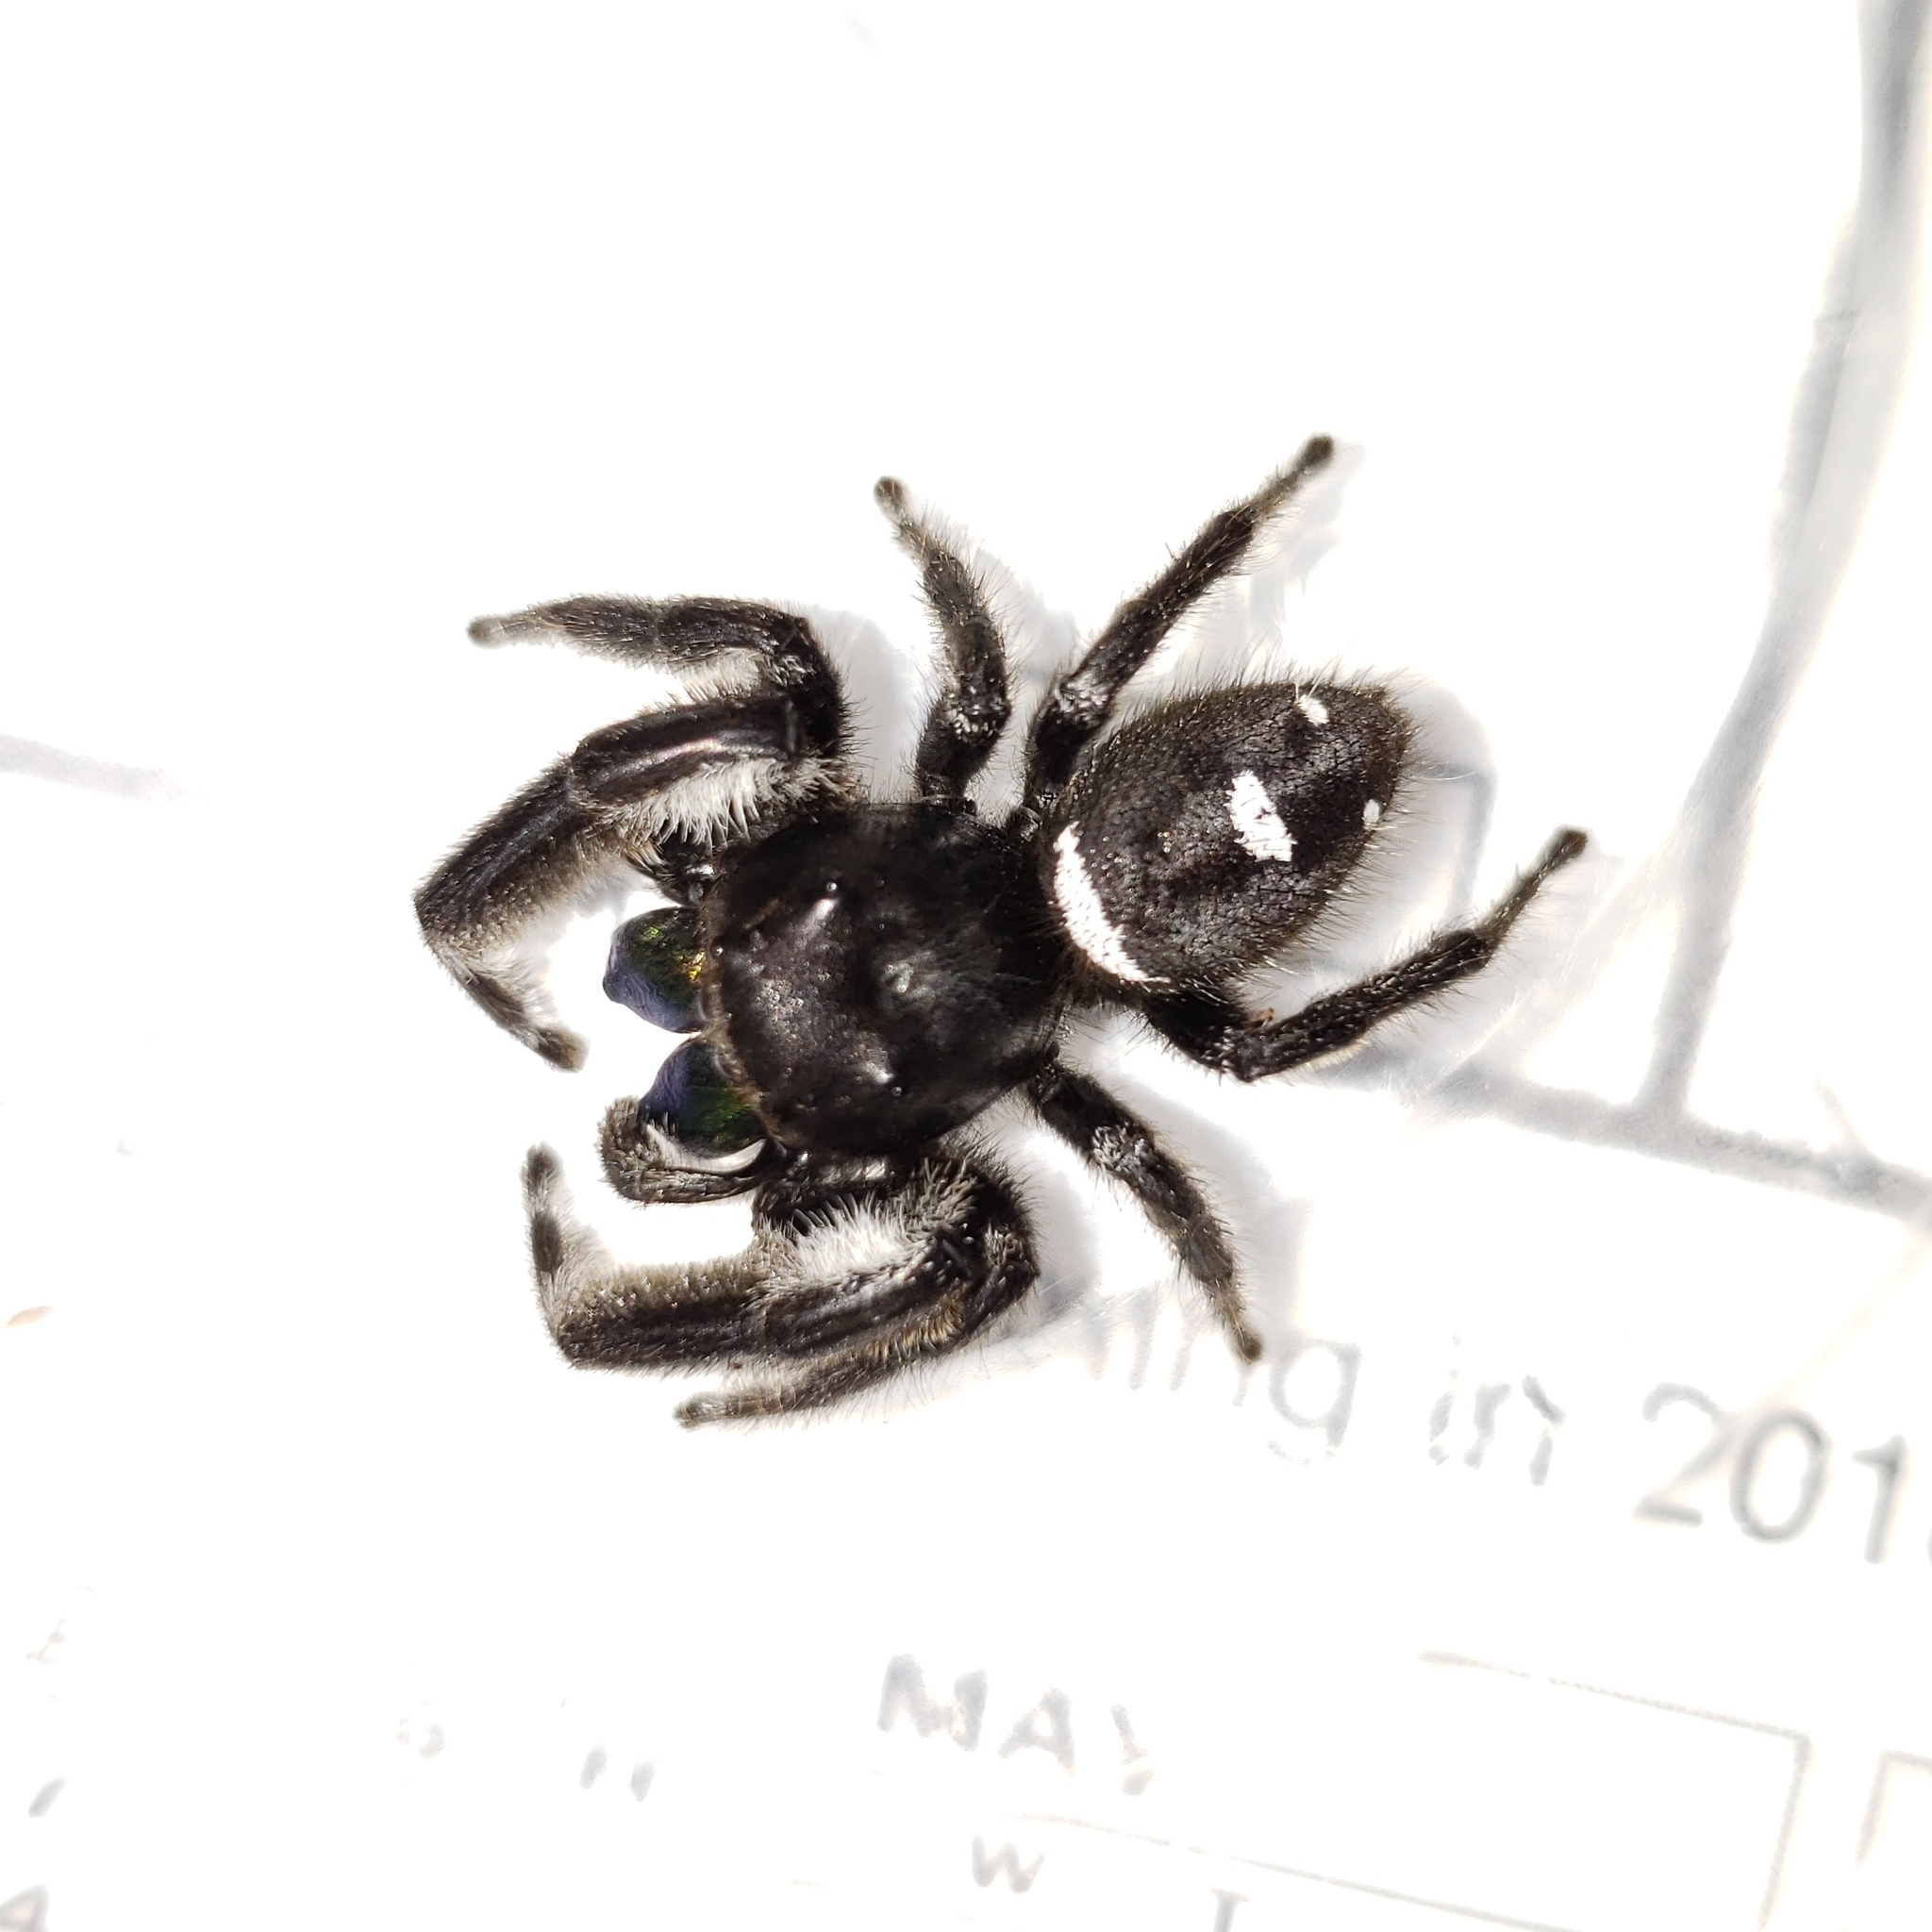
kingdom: Animalia
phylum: Arthropoda
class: Arachnida
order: Araneae
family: Salticidae
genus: Phidippus
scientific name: Phidippus regius
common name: Regal jumper
